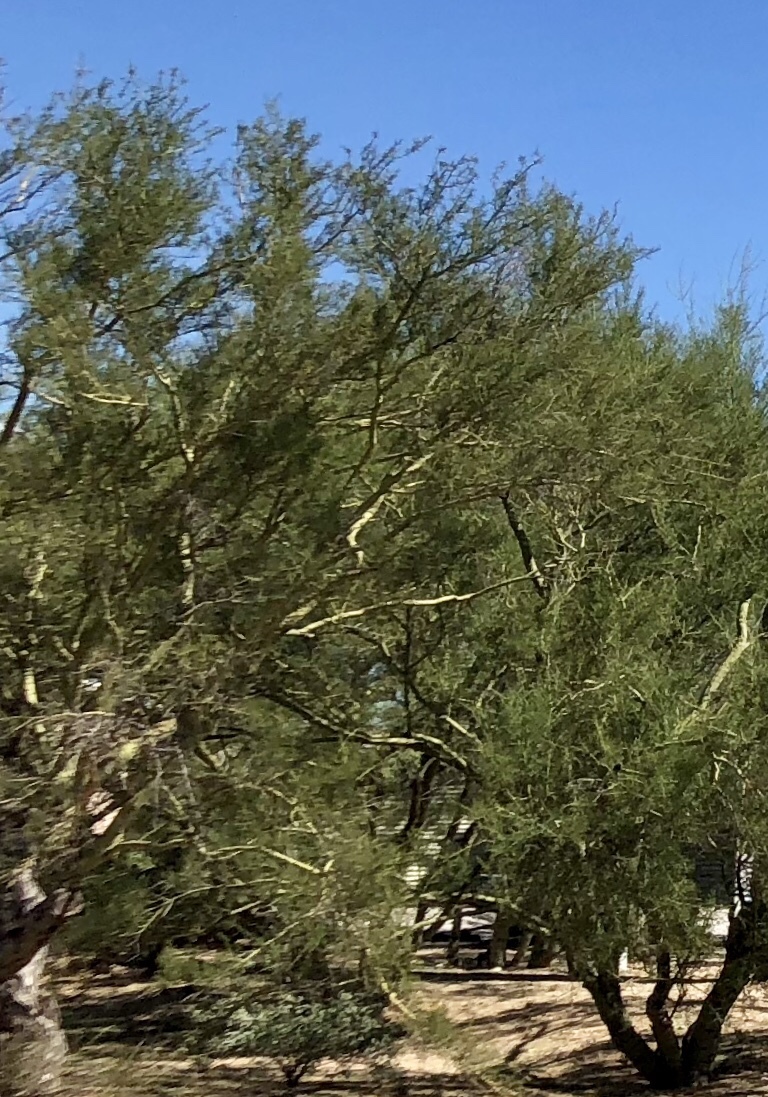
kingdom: Plantae
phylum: Tracheophyta
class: Magnoliopsida
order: Fabales
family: Fabaceae
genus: Parkinsonia
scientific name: Parkinsonia microphylla
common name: Yellow paloverde
